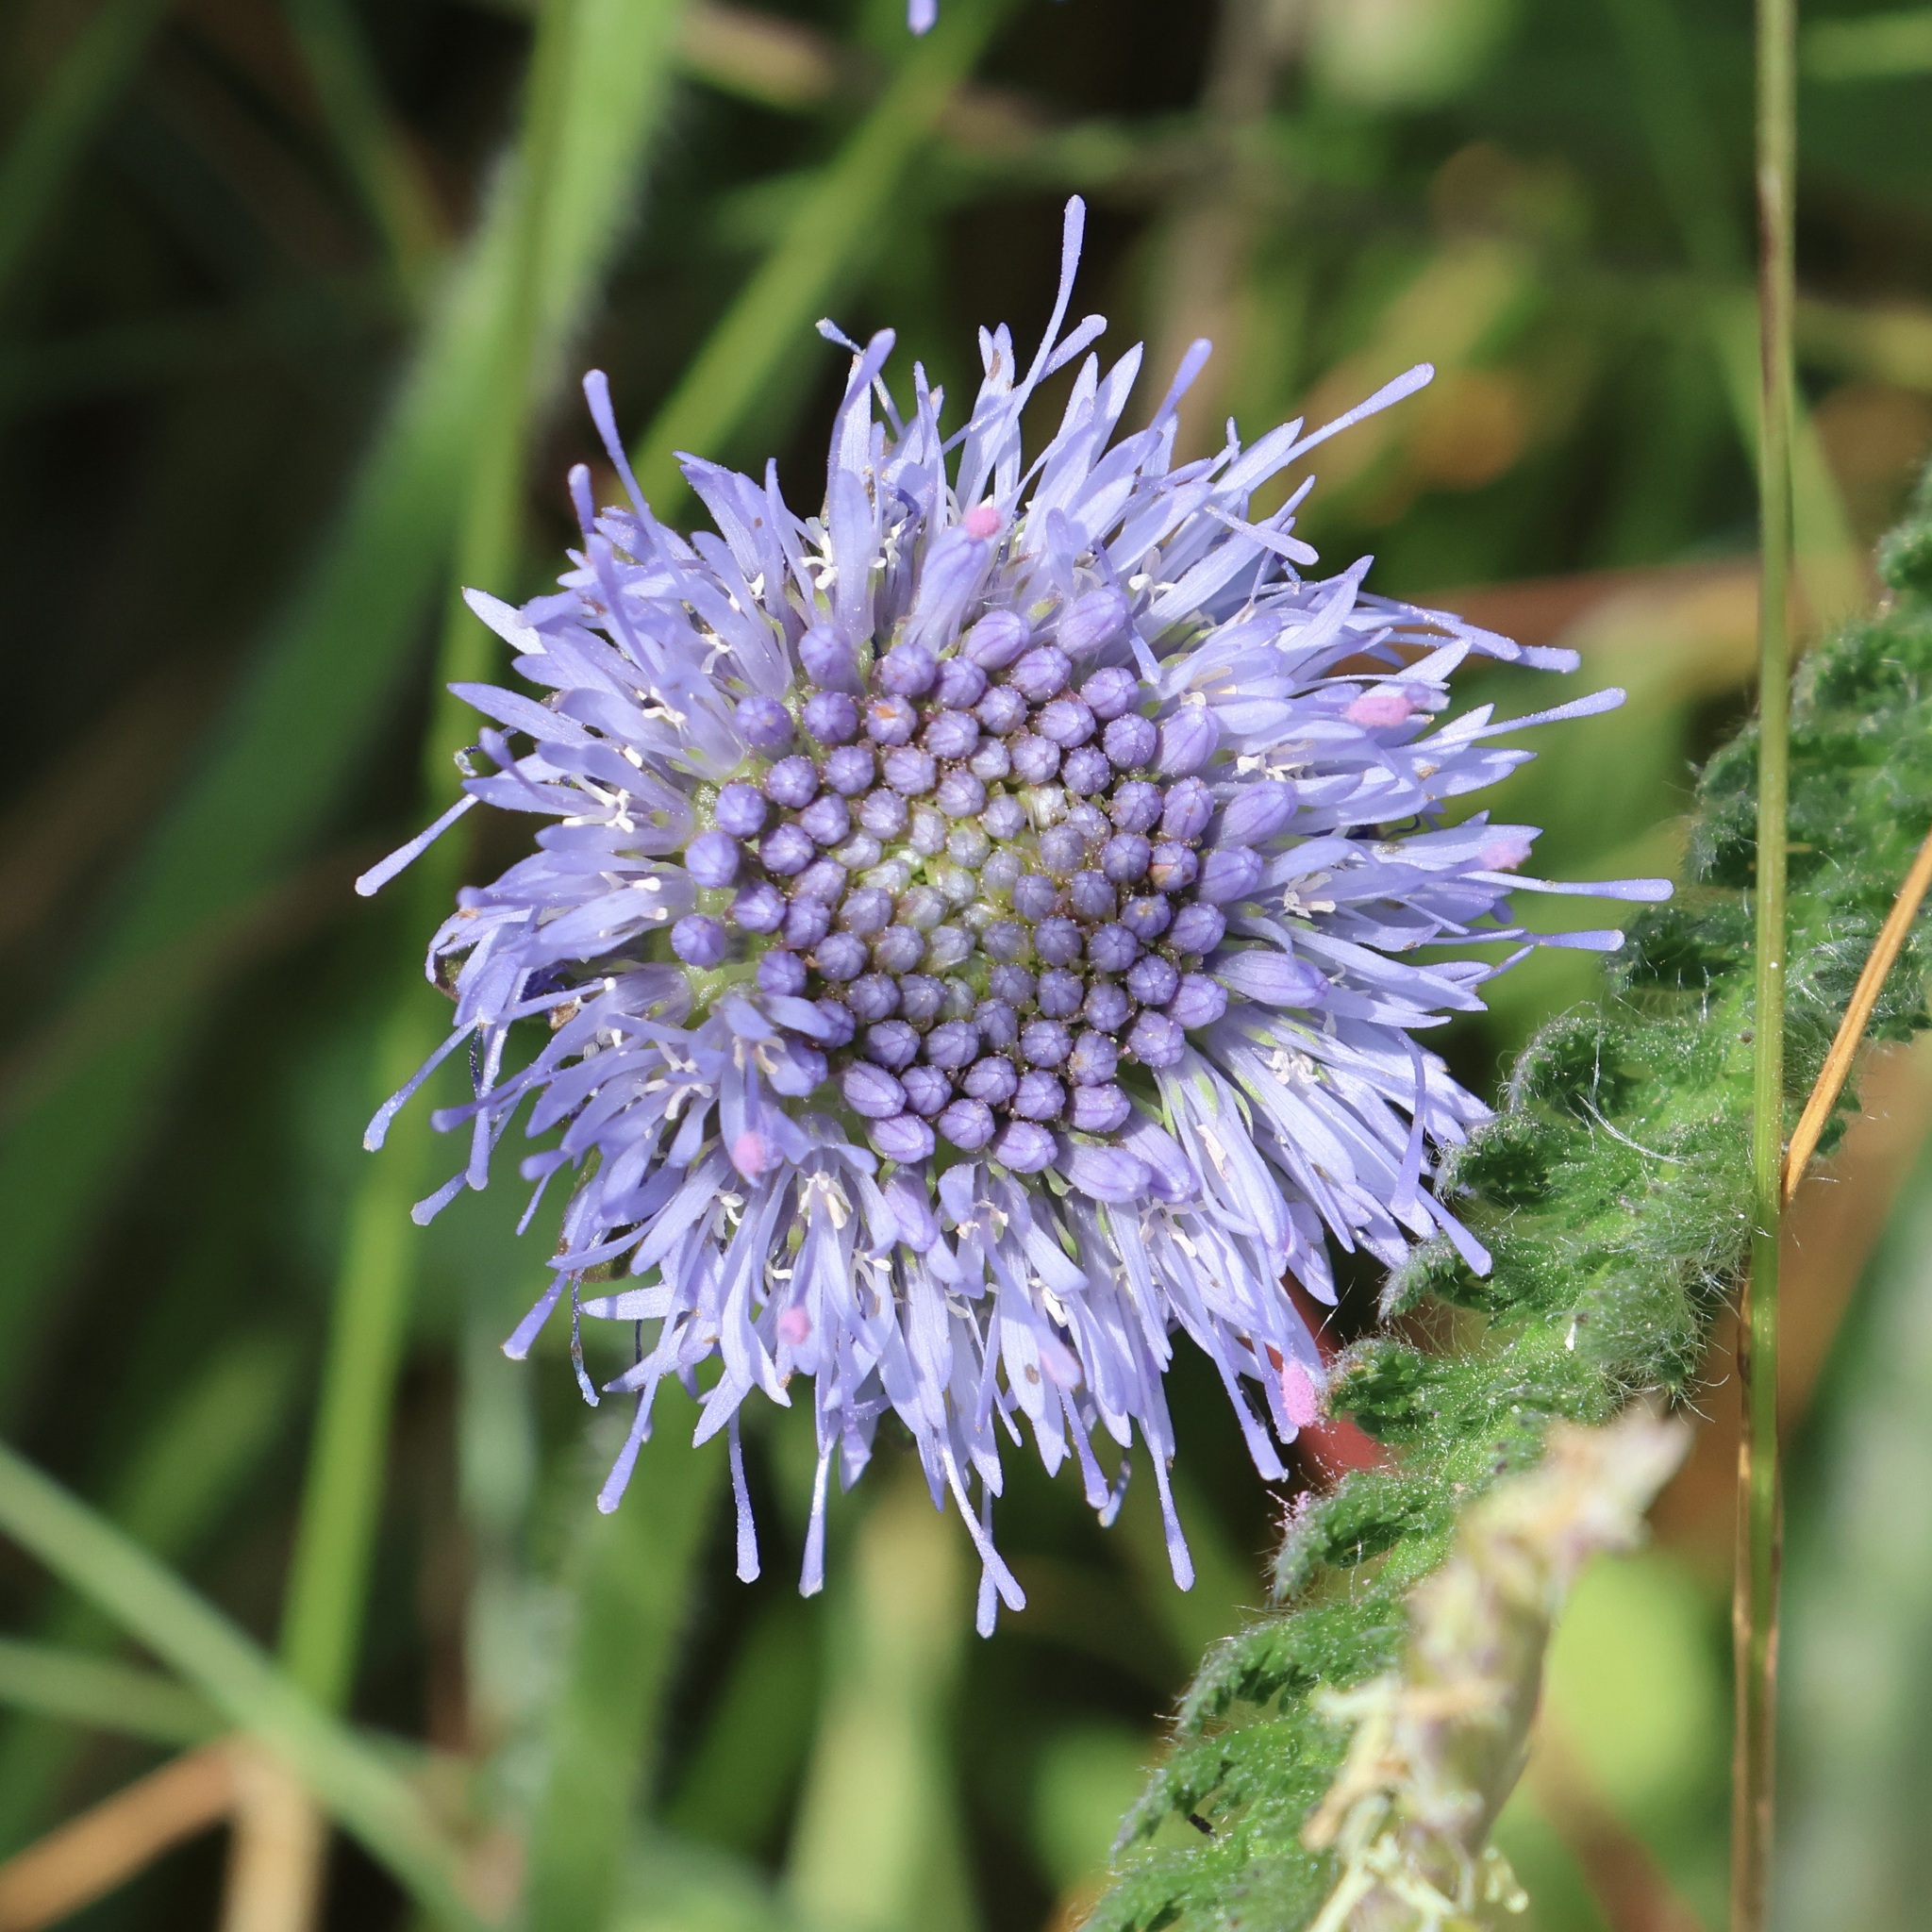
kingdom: Plantae
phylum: Tracheophyta
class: Magnoliopsida
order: Asterales
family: Campanulaceae
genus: Jasione
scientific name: Jasione montana
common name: Sheep's-bit
